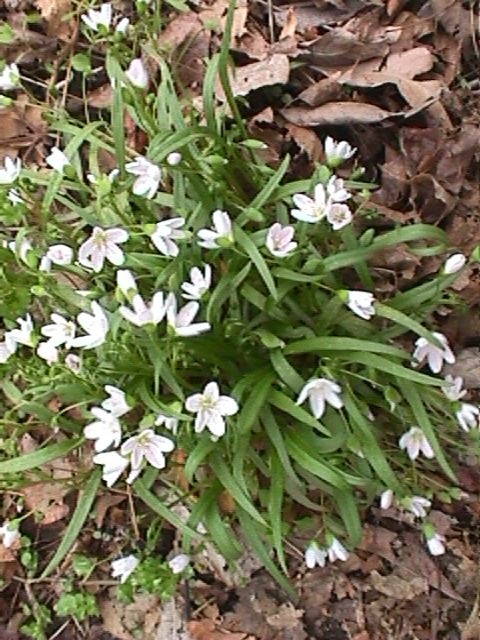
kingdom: Plantae
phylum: Tracheophyta
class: Magnoliopsida
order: Caryophyllales
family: Montiaceae
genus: Claytonia
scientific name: Claytonia virginica
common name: Virginia springbeauty
